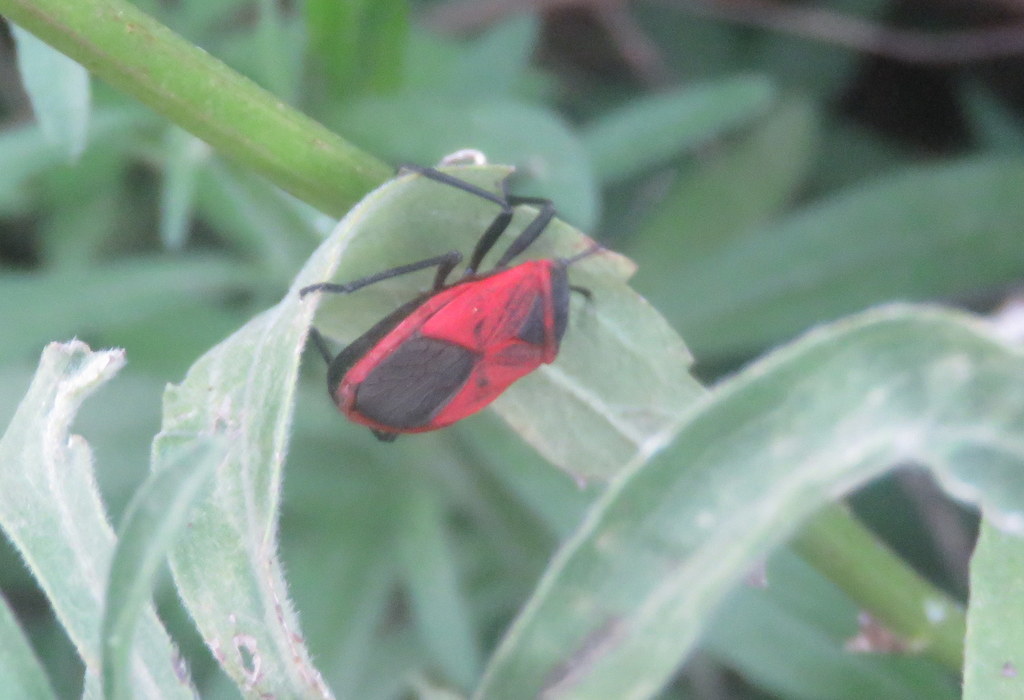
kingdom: Animalia
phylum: Arthropoda
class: Insecta
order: Hemiptera
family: Largidae
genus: Largus
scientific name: Largus rufipennis
